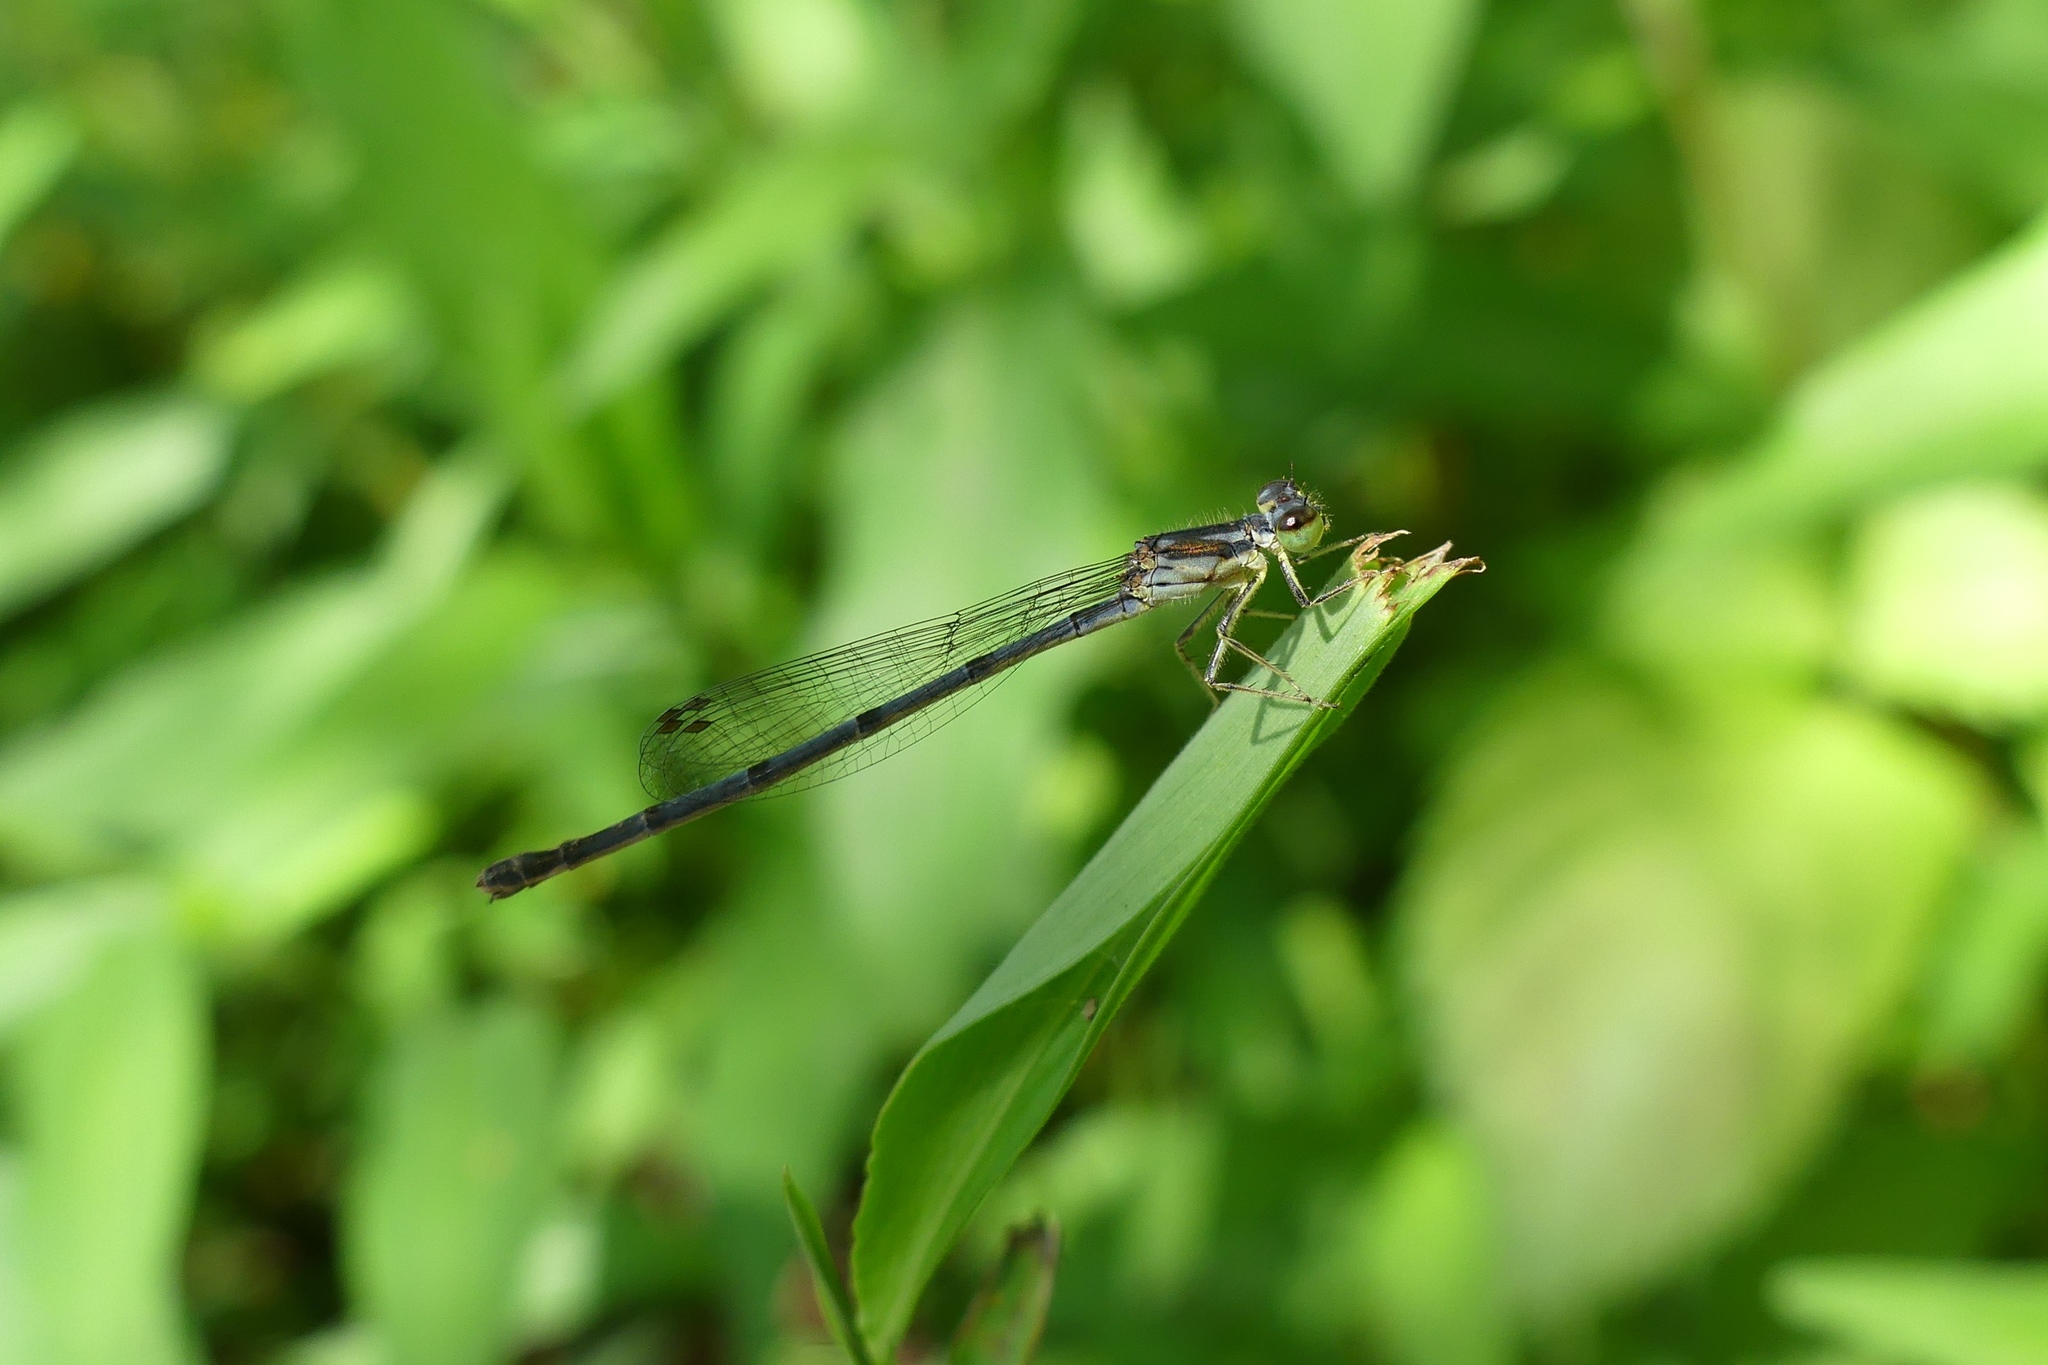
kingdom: Animalia
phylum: Arthropoda
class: Insecta
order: Odonata
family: Coenagrionidae
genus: Ischnura
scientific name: Ischnura posita
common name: Fragile forktail
